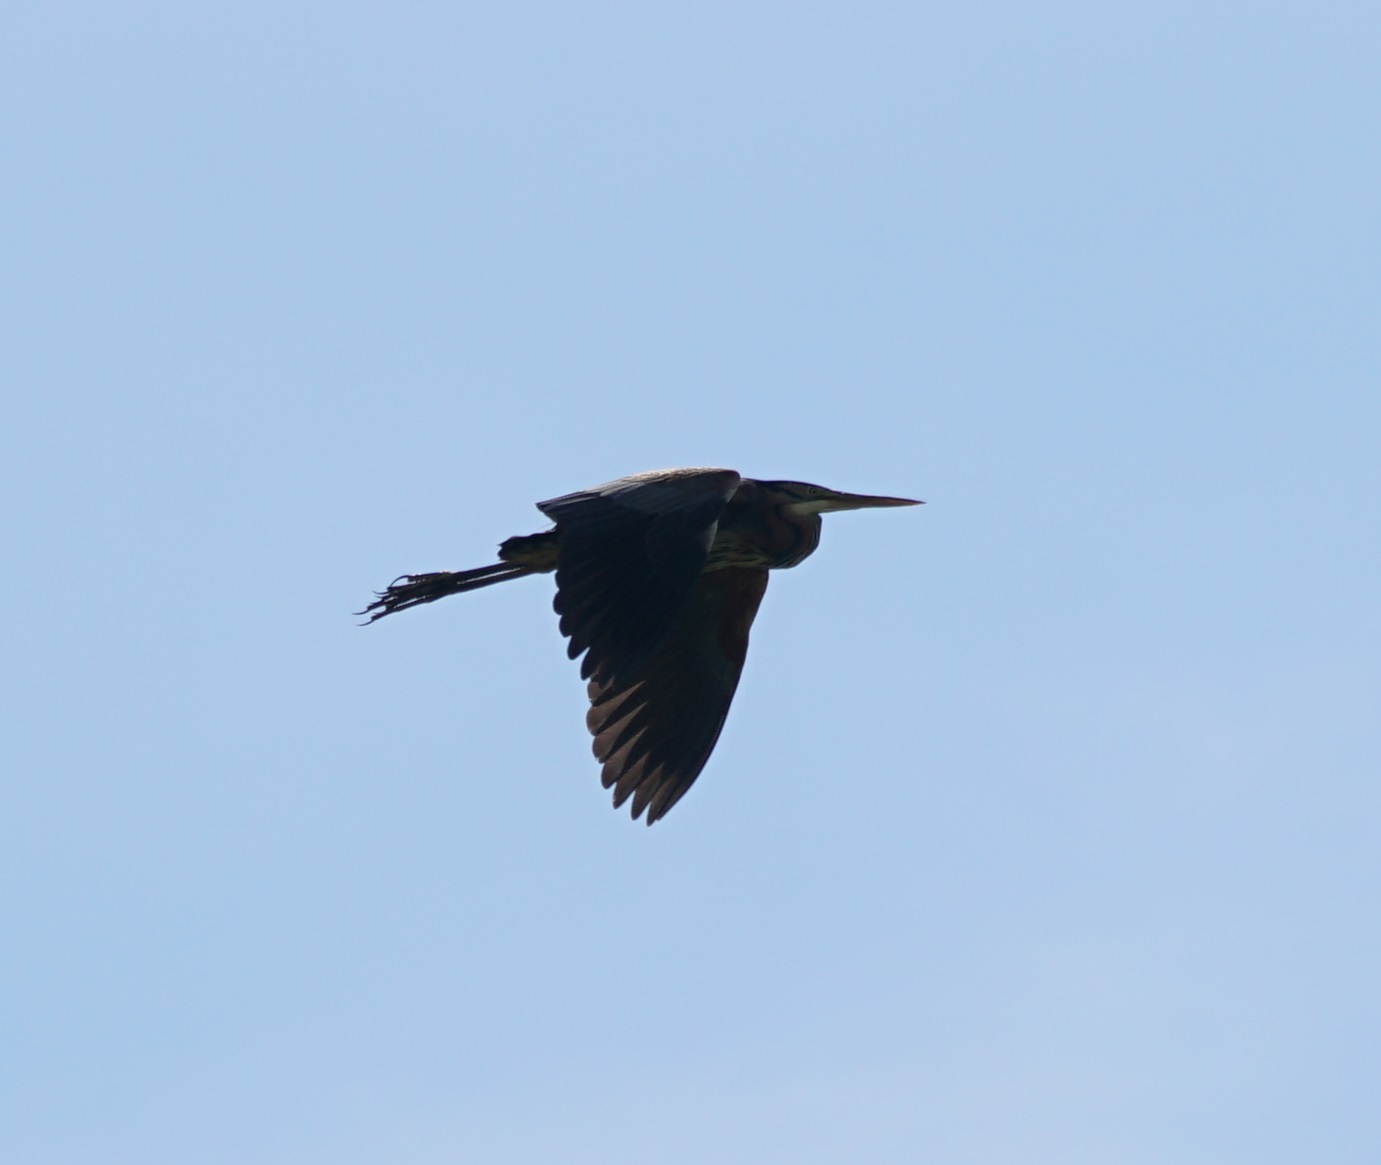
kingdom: Animalia
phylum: Chordata
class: Aves
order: Pelecaniformes
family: Ardeidae
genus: Ardea
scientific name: Ardea purpurea
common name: Purple heron
